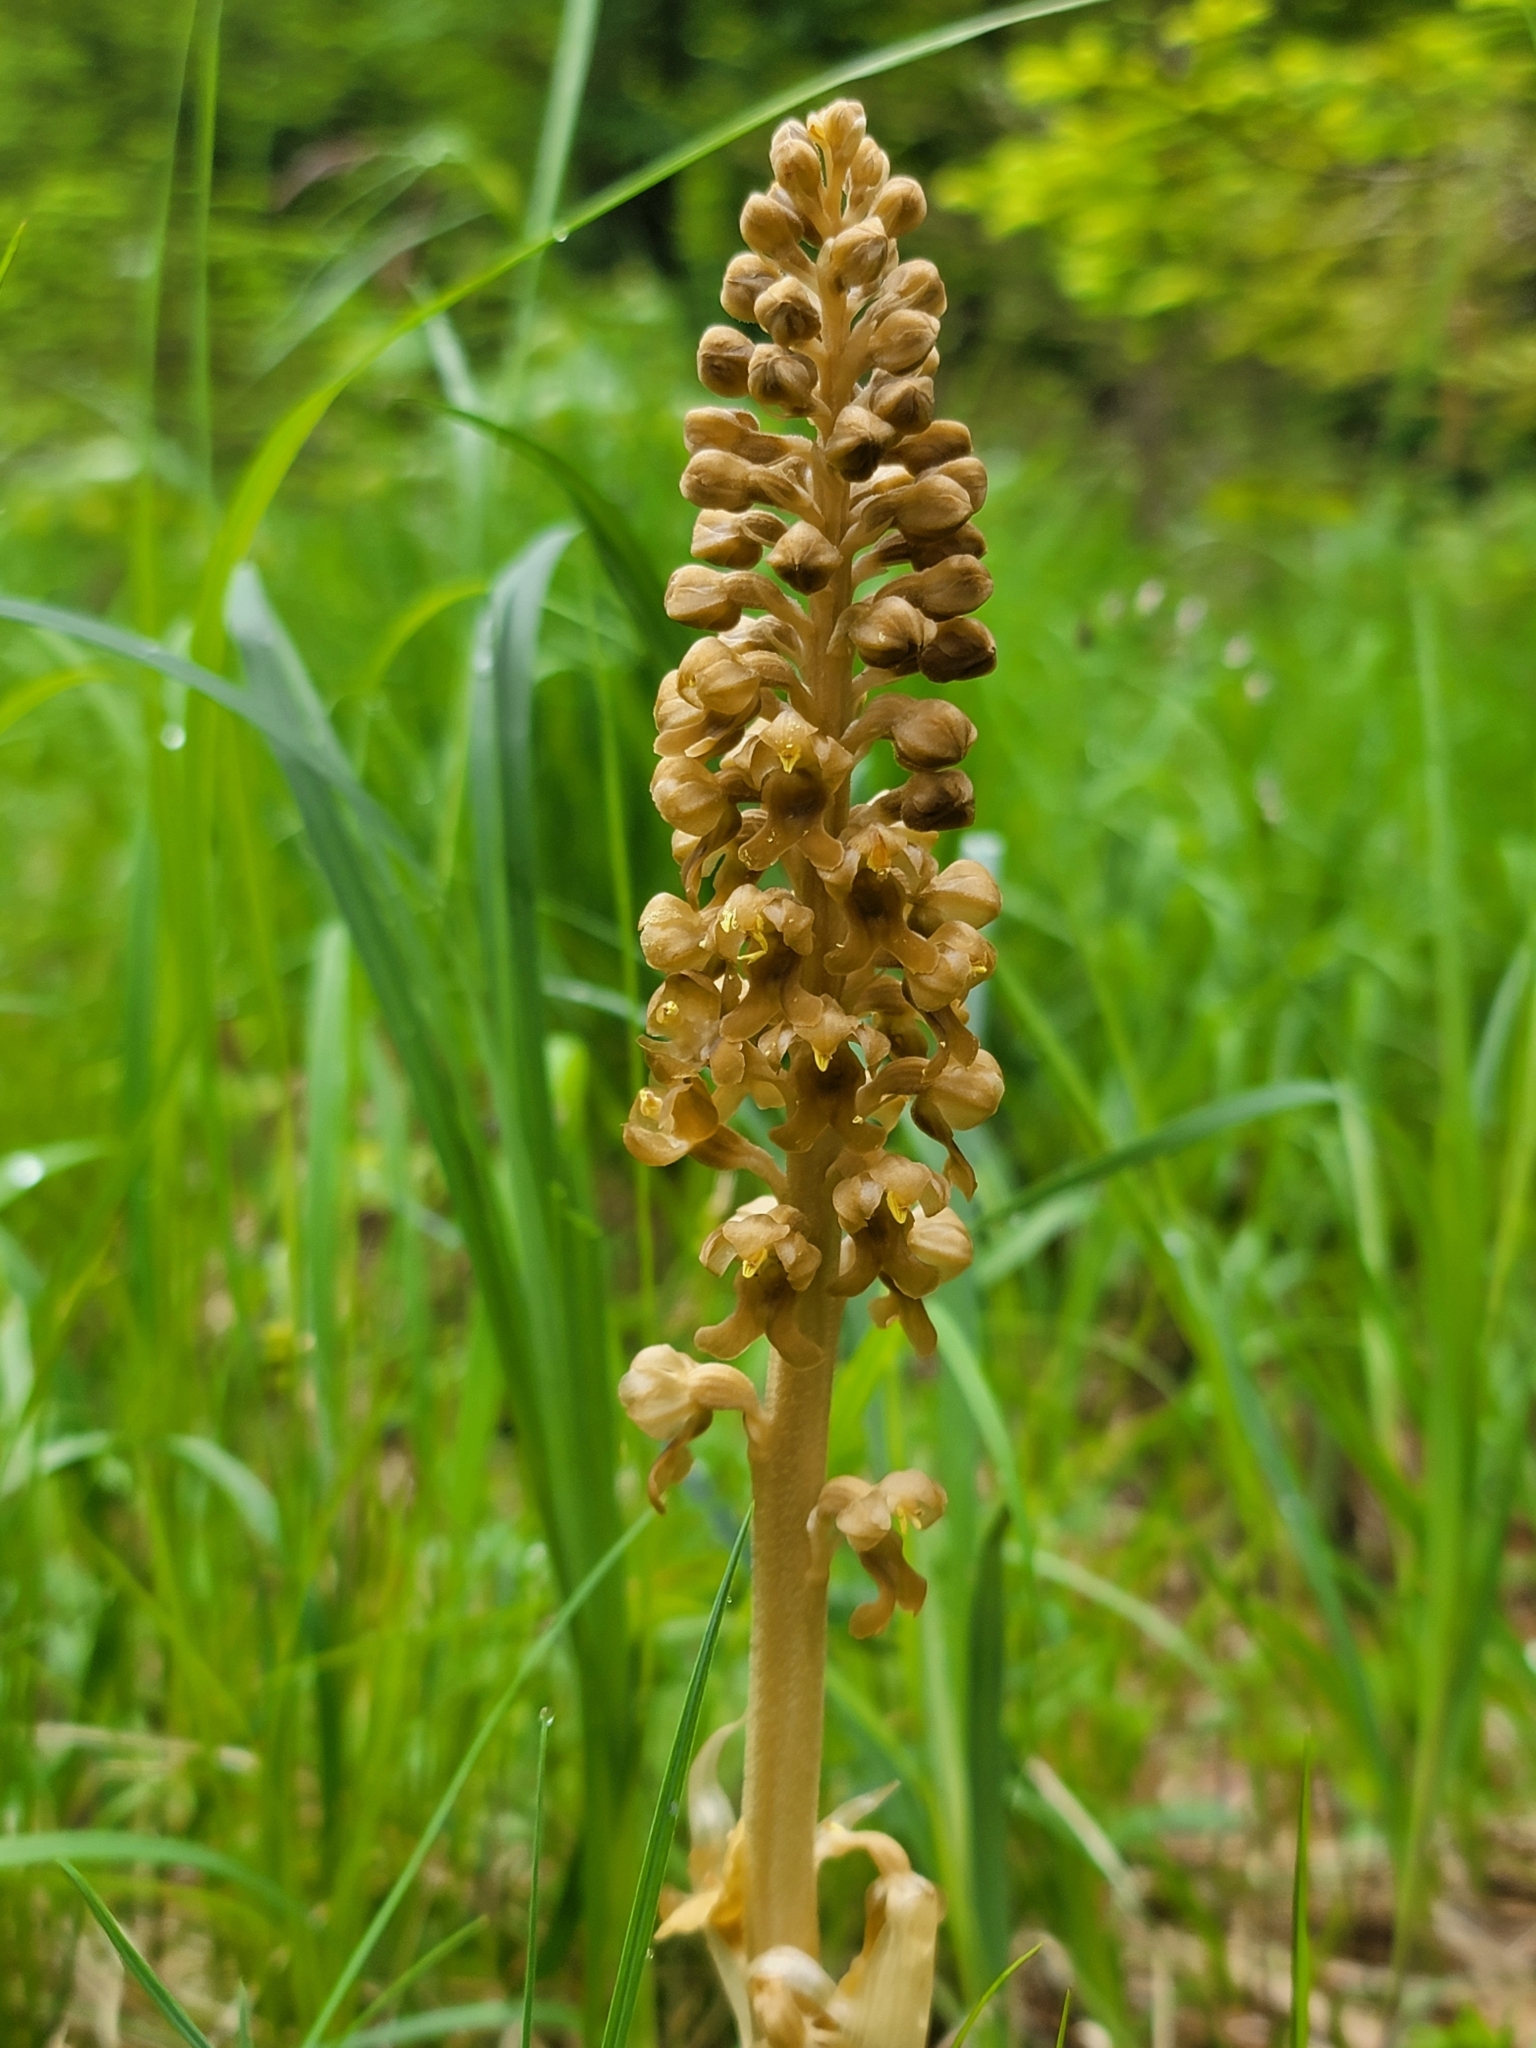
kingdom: Plantae
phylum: Tracheophyta
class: Liliopsida
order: Asparagales
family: Orchidaceae
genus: Neottia
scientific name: Neottia nidus-avis
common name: Bird's-nest orchid
